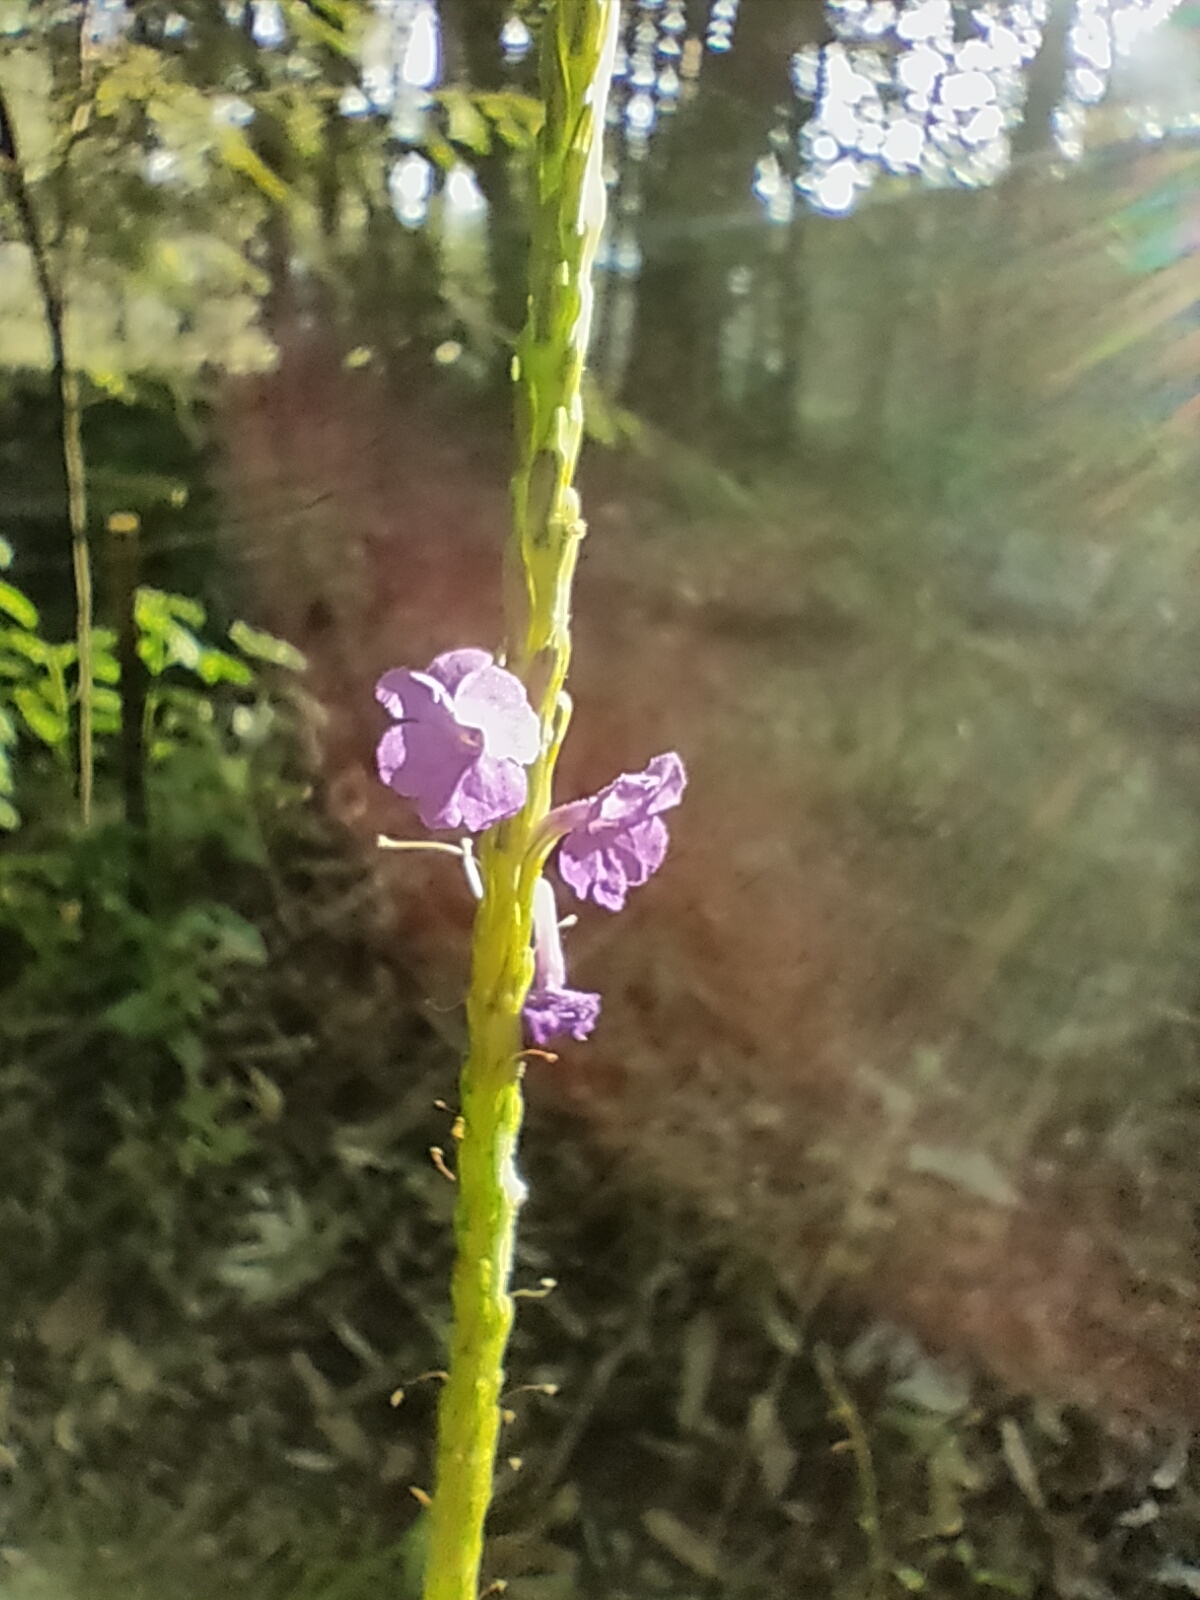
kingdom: Plantae
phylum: Tracheophyta
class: Magnoliopsida
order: Lamiales
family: Verbenaceae
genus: Stachytarpheta
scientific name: Stachytarpheta cayennensis
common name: Cayenne porterweed
